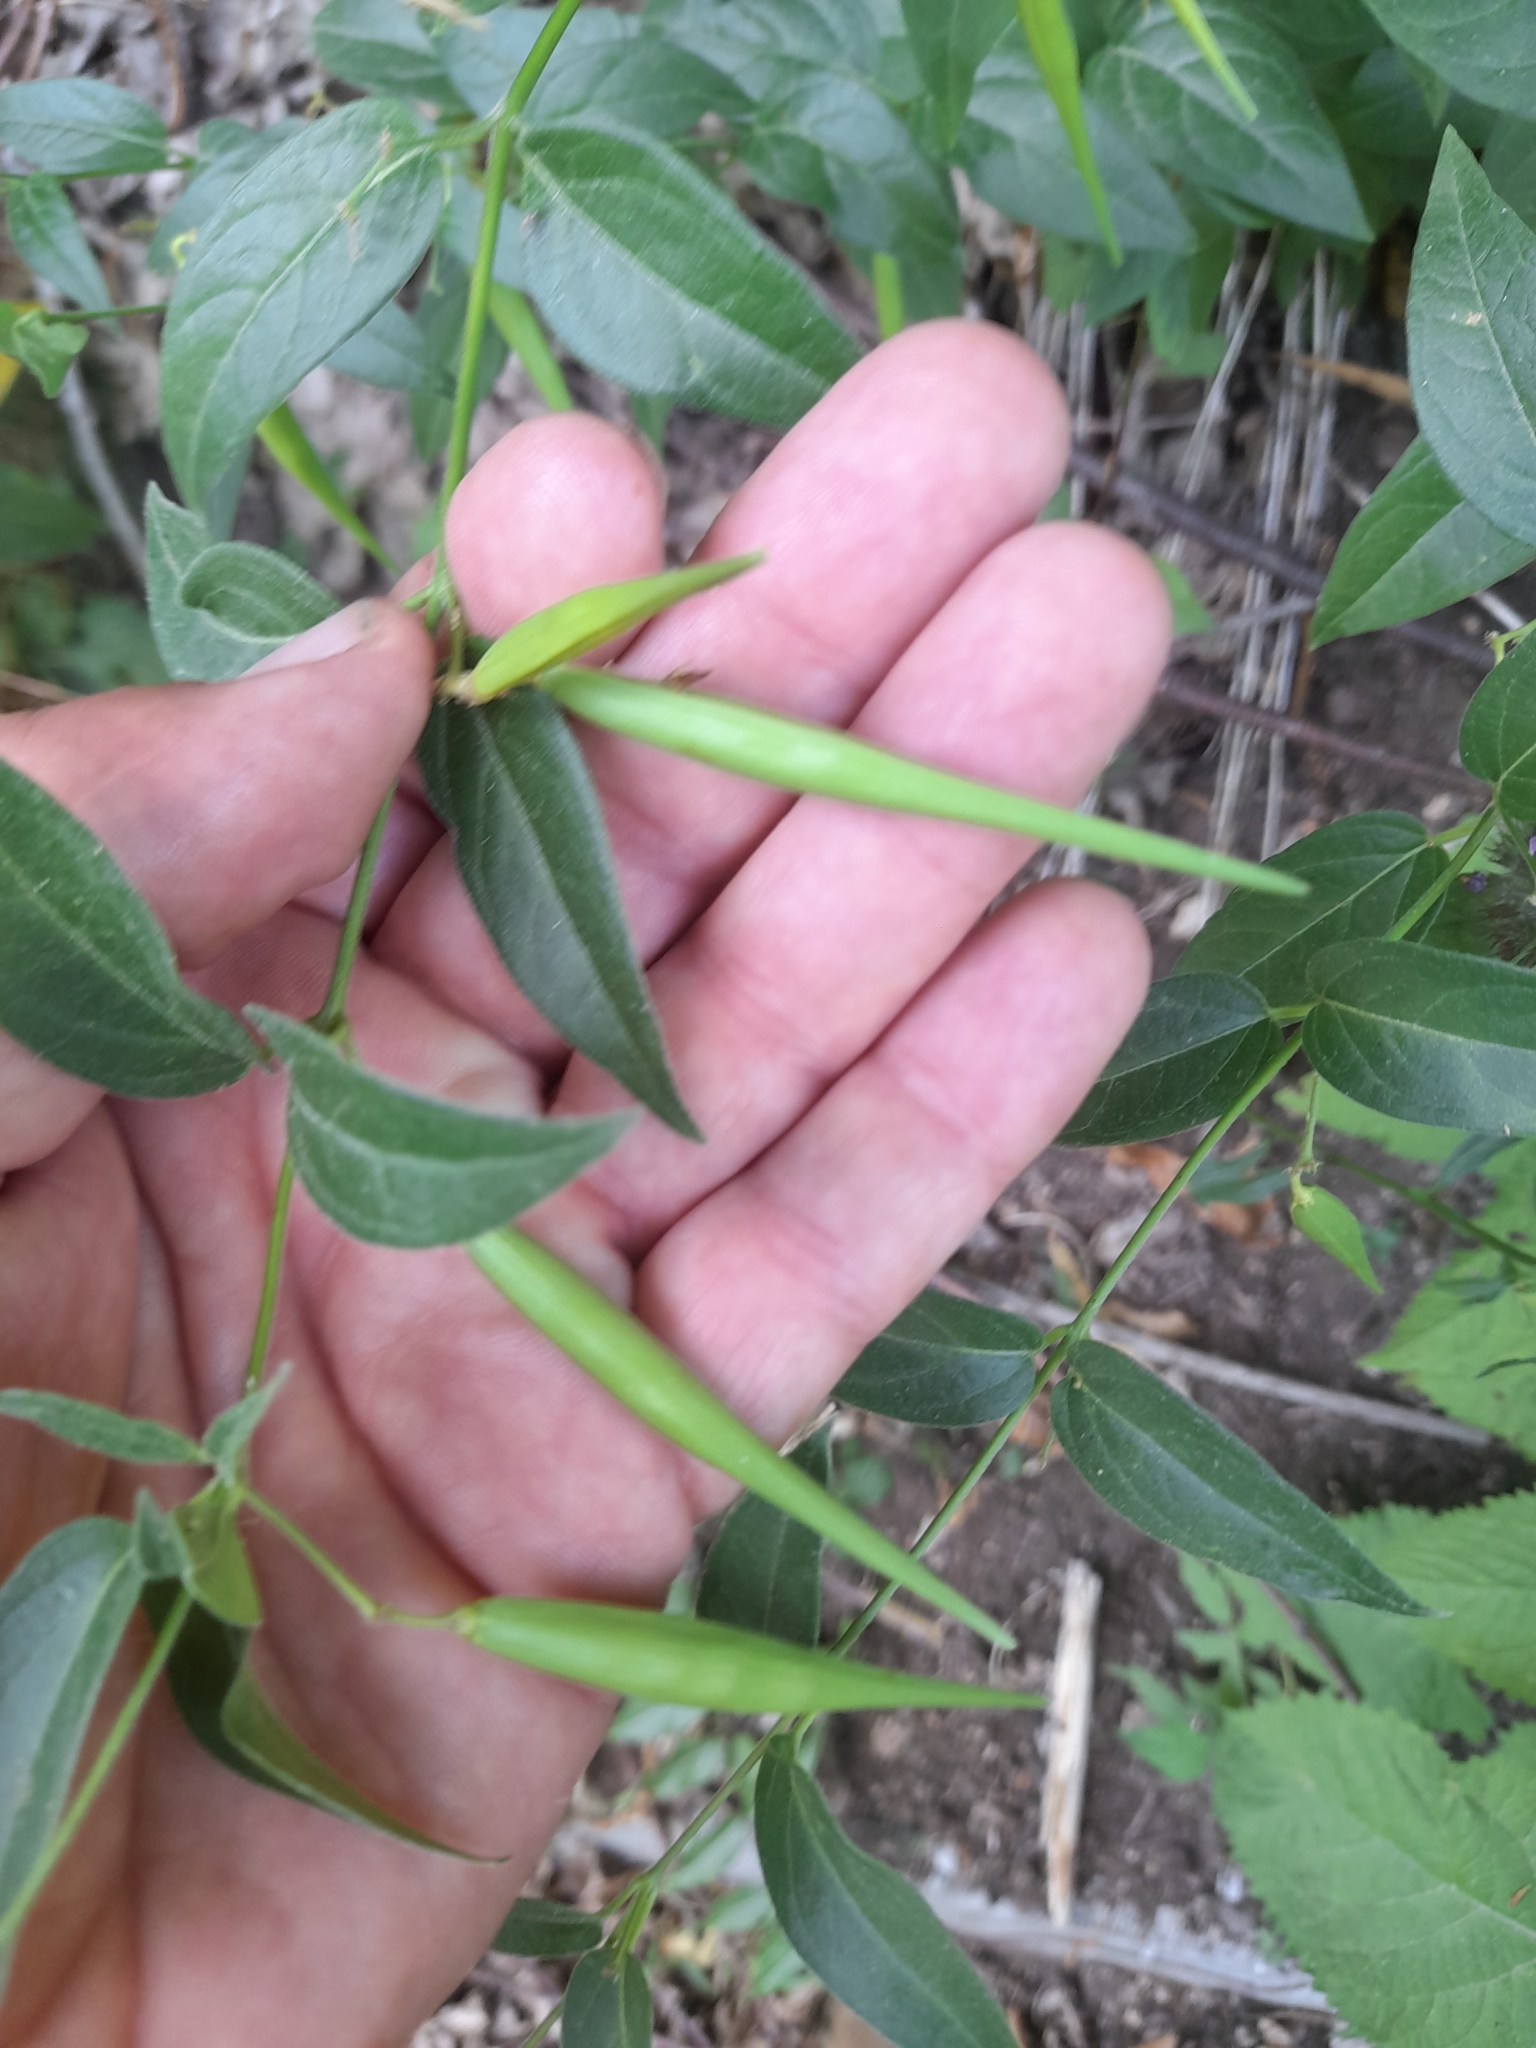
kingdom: Plantae
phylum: Tracheophyta
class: Magnoliopsida
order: Gentianales
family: Apocynaceae
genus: Vincetoxicum
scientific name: Vincetoxicum hirundinaria
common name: White swallowwort
